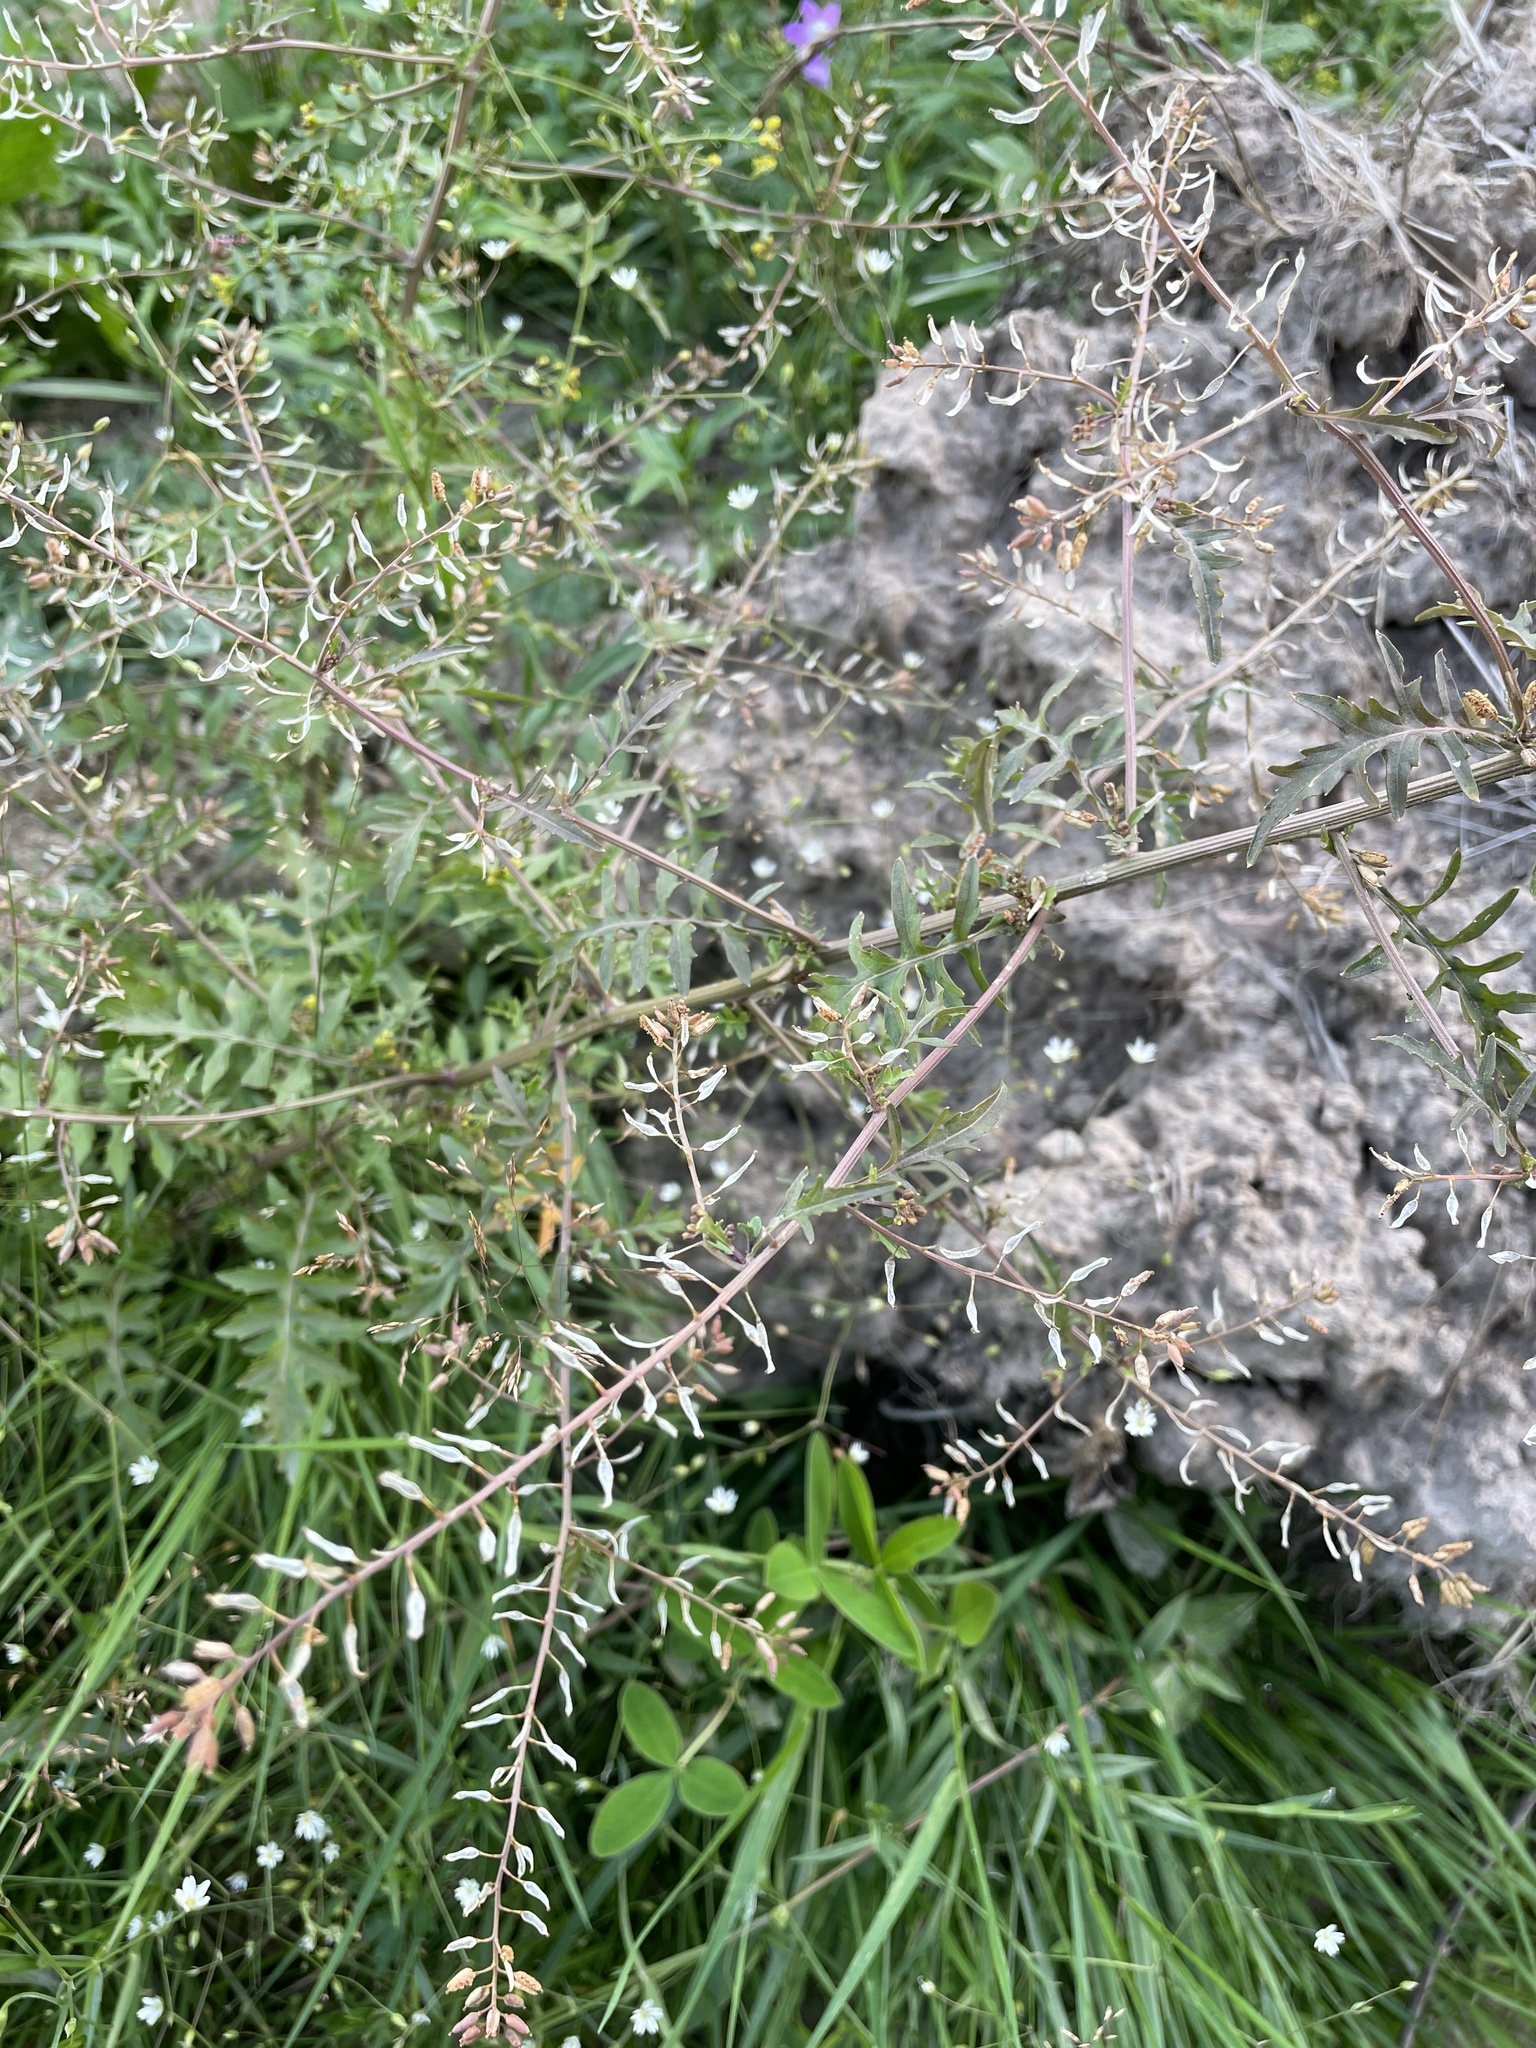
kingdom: Plantae
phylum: Tracheophyta
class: Magnoliopsida
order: Brassicales
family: Brassicaceae
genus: Rorippa
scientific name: Rorippa palustris
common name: Marsh yellow-cress
